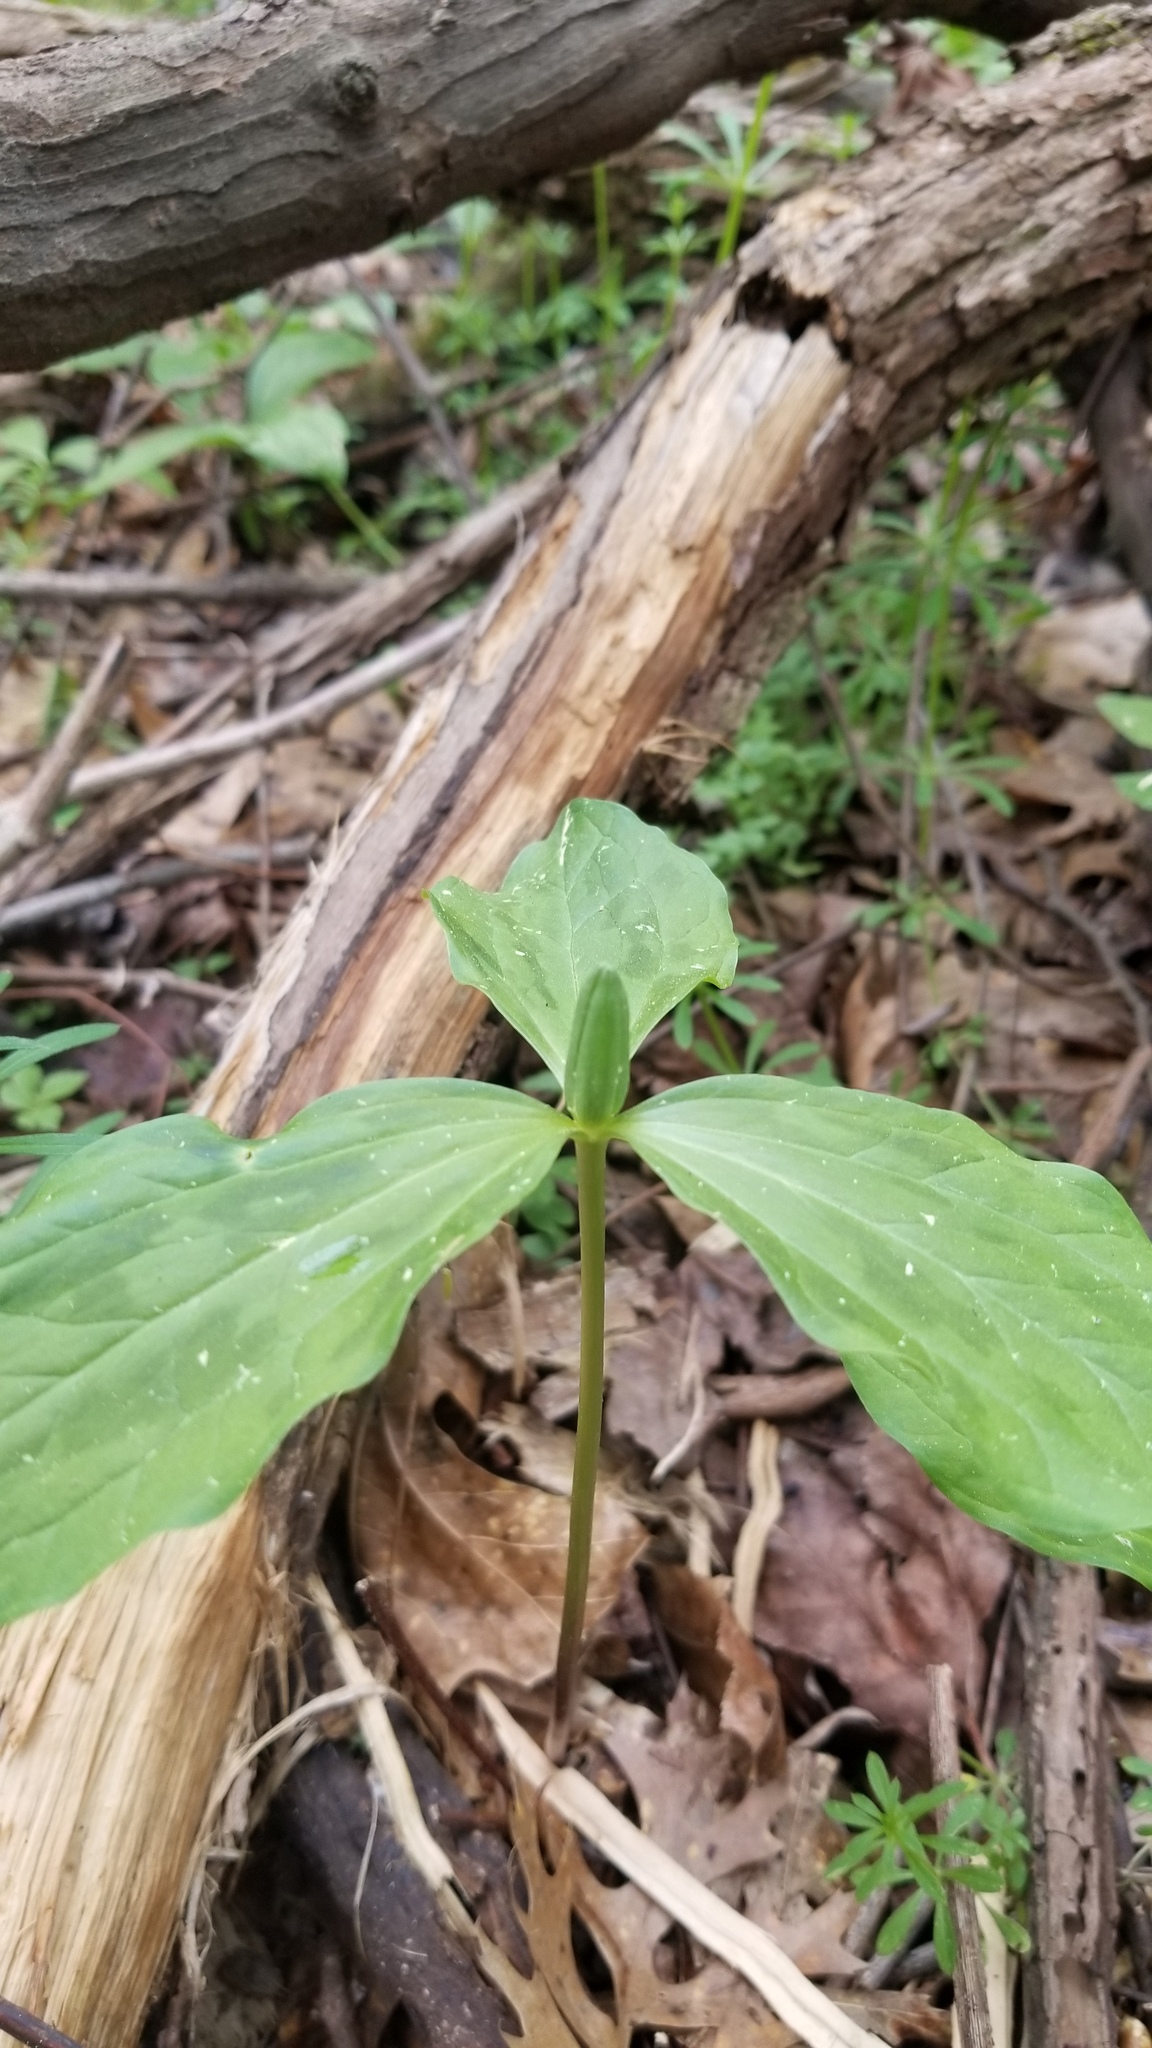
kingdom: Plantae
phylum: Tracheophyta
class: Liliopsida
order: Liliales
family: Melanthiaceae
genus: Trillium
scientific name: Trillium oostingii
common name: Wateree trillium
